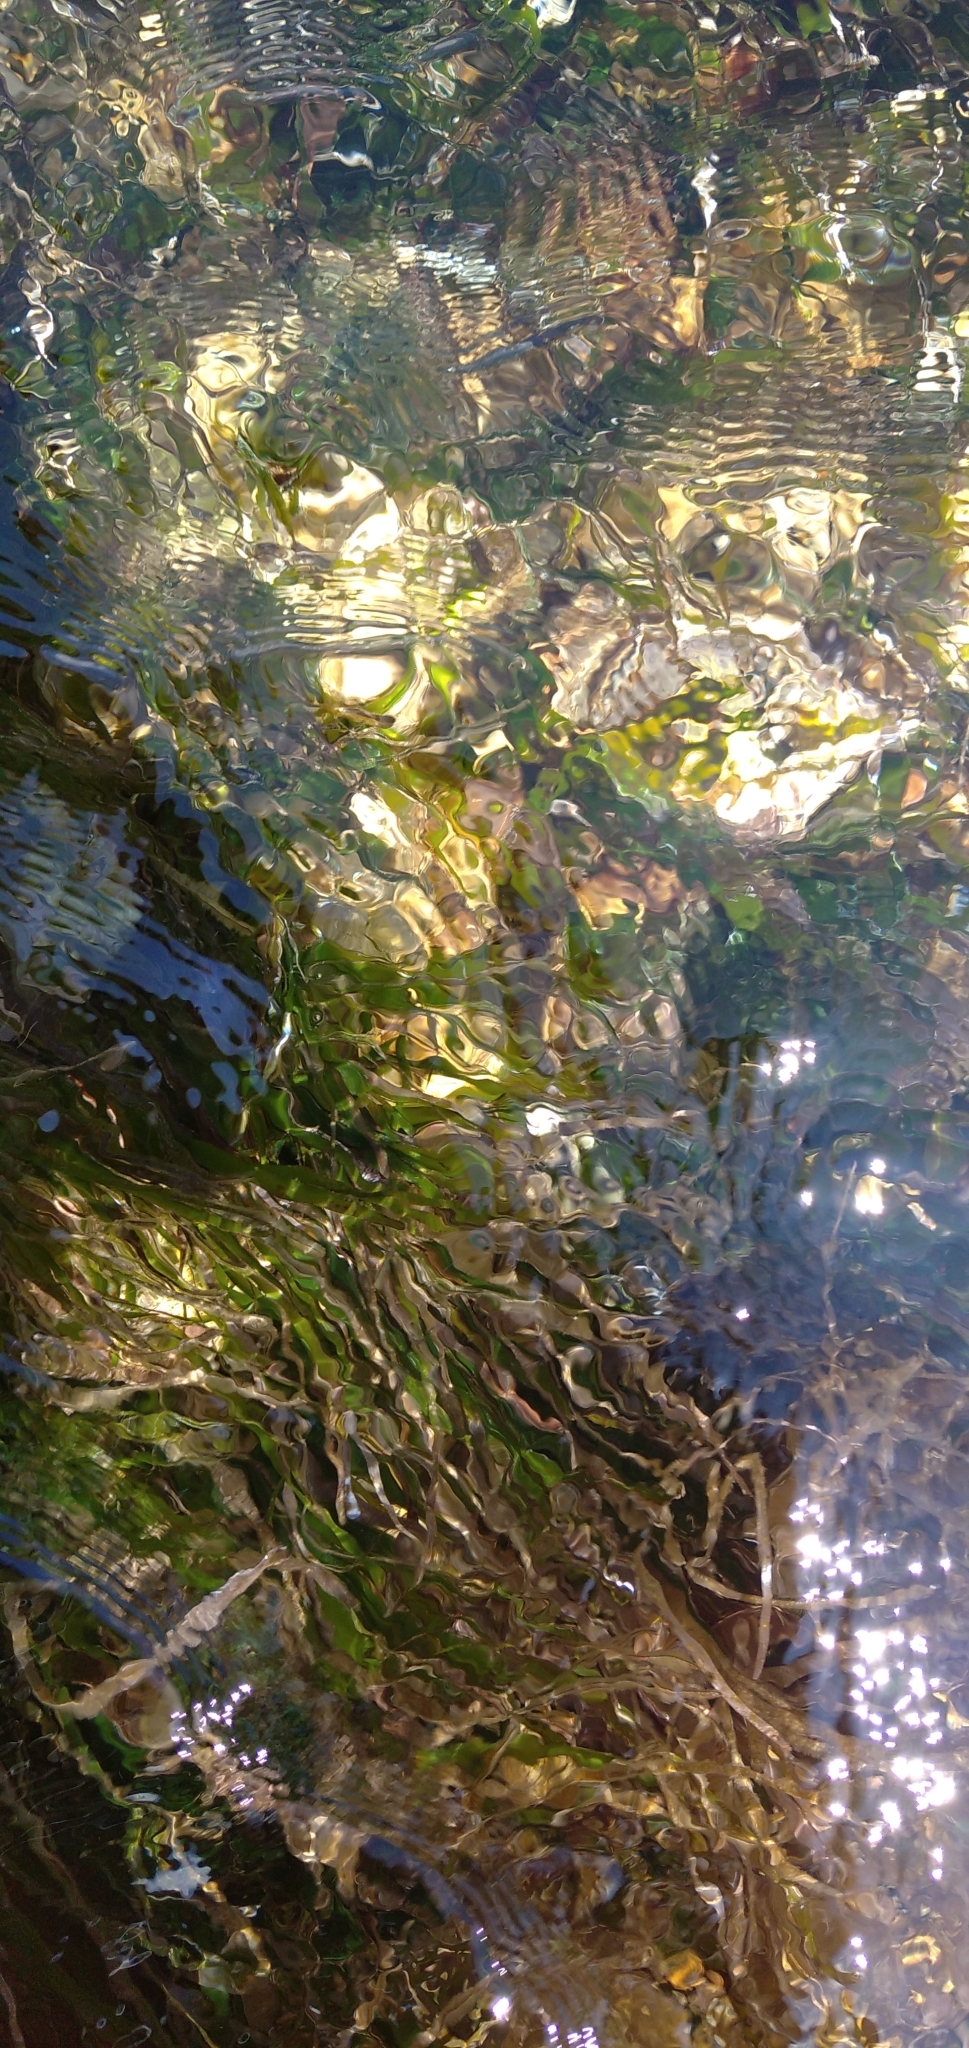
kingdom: Plantae
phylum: Tracheophyta
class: Liliopsida
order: Alismatales
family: Posidoniaceae
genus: Posidonia
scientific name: Posidonia oceanica
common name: Mediterranean tapeweed
